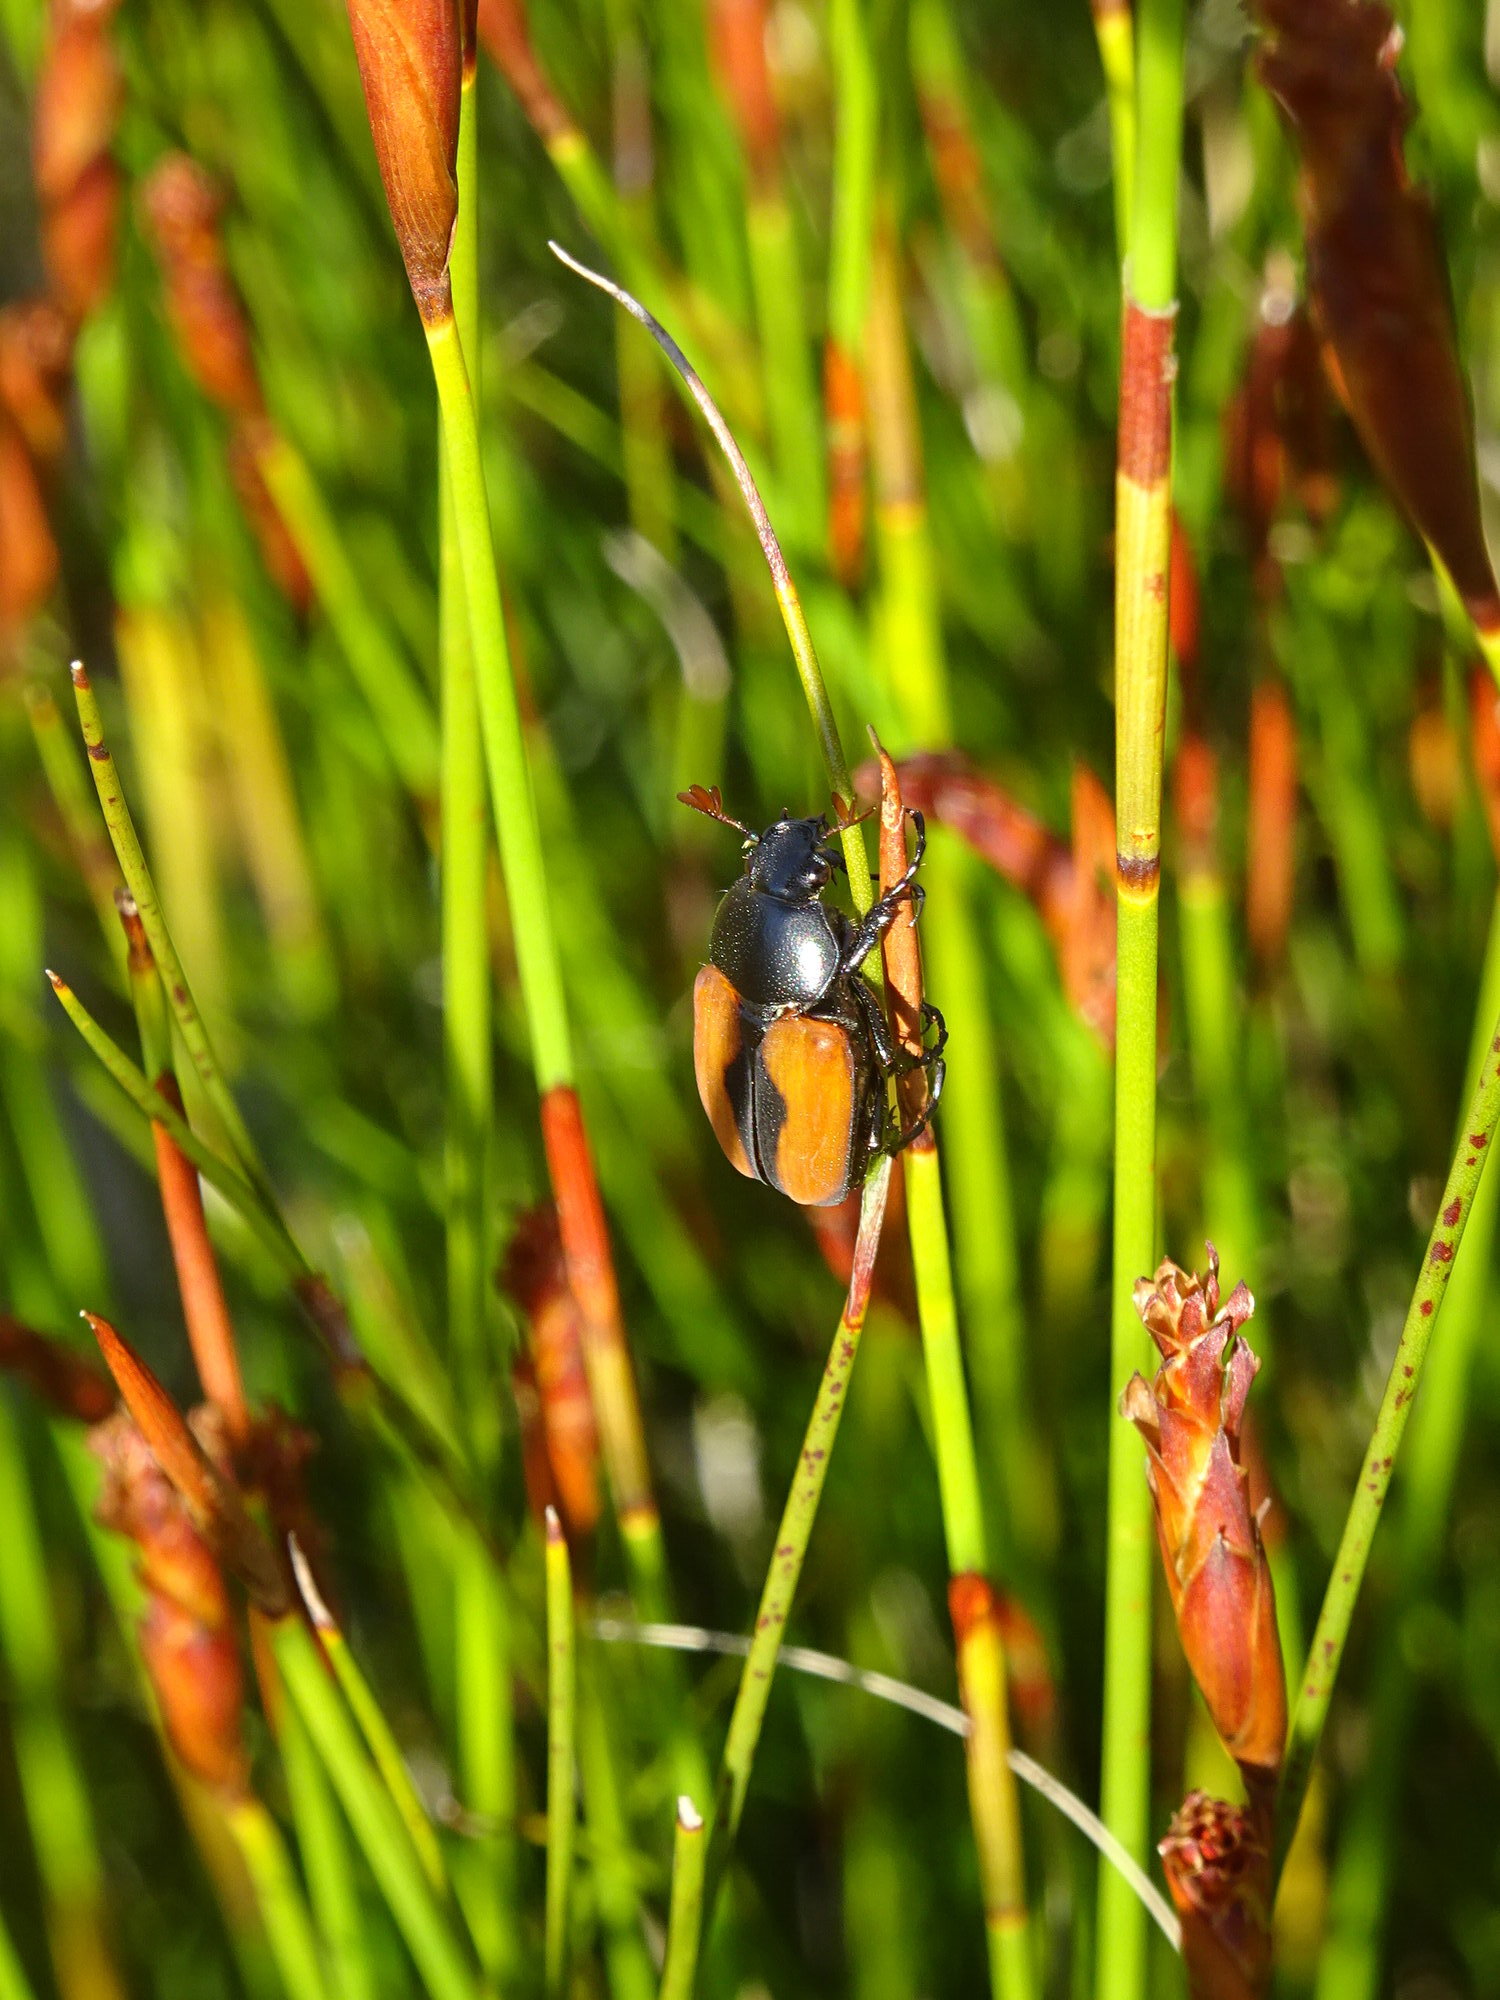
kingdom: Animalia
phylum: Arthropoda
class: Insecta
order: Coleoptera
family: Scarabaeidae
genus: Breviclypeus
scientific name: Breviclypeus rufipennis
